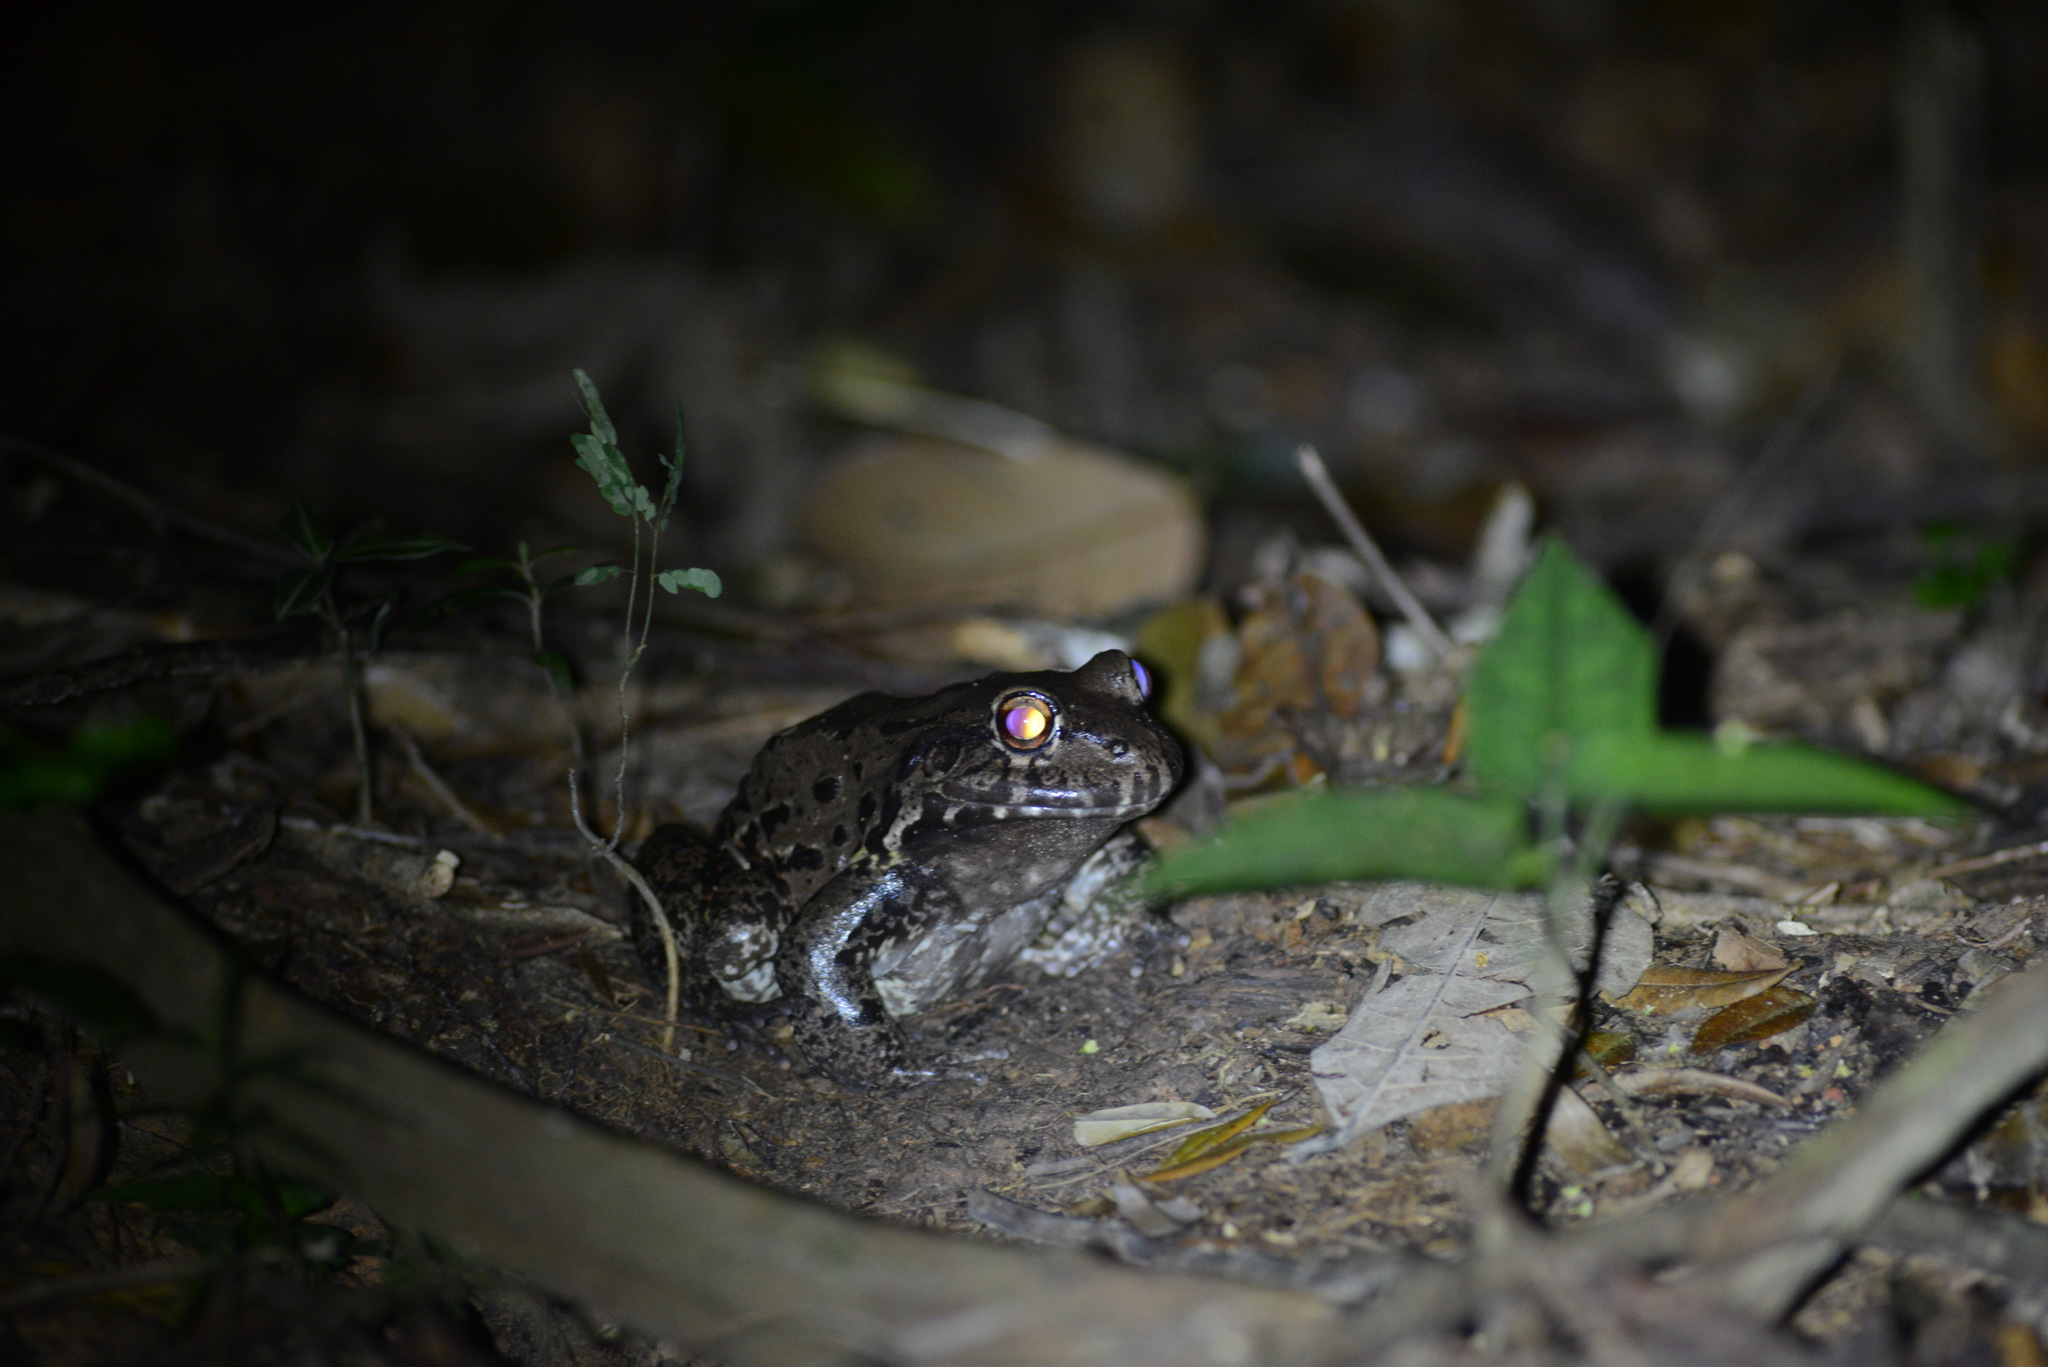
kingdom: Animalia
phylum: Chordata
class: Amphibia
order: Anura
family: Leptodactylidae
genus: Leptodactylus
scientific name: Leptodactylus vastus
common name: Northeastern pepper frog
